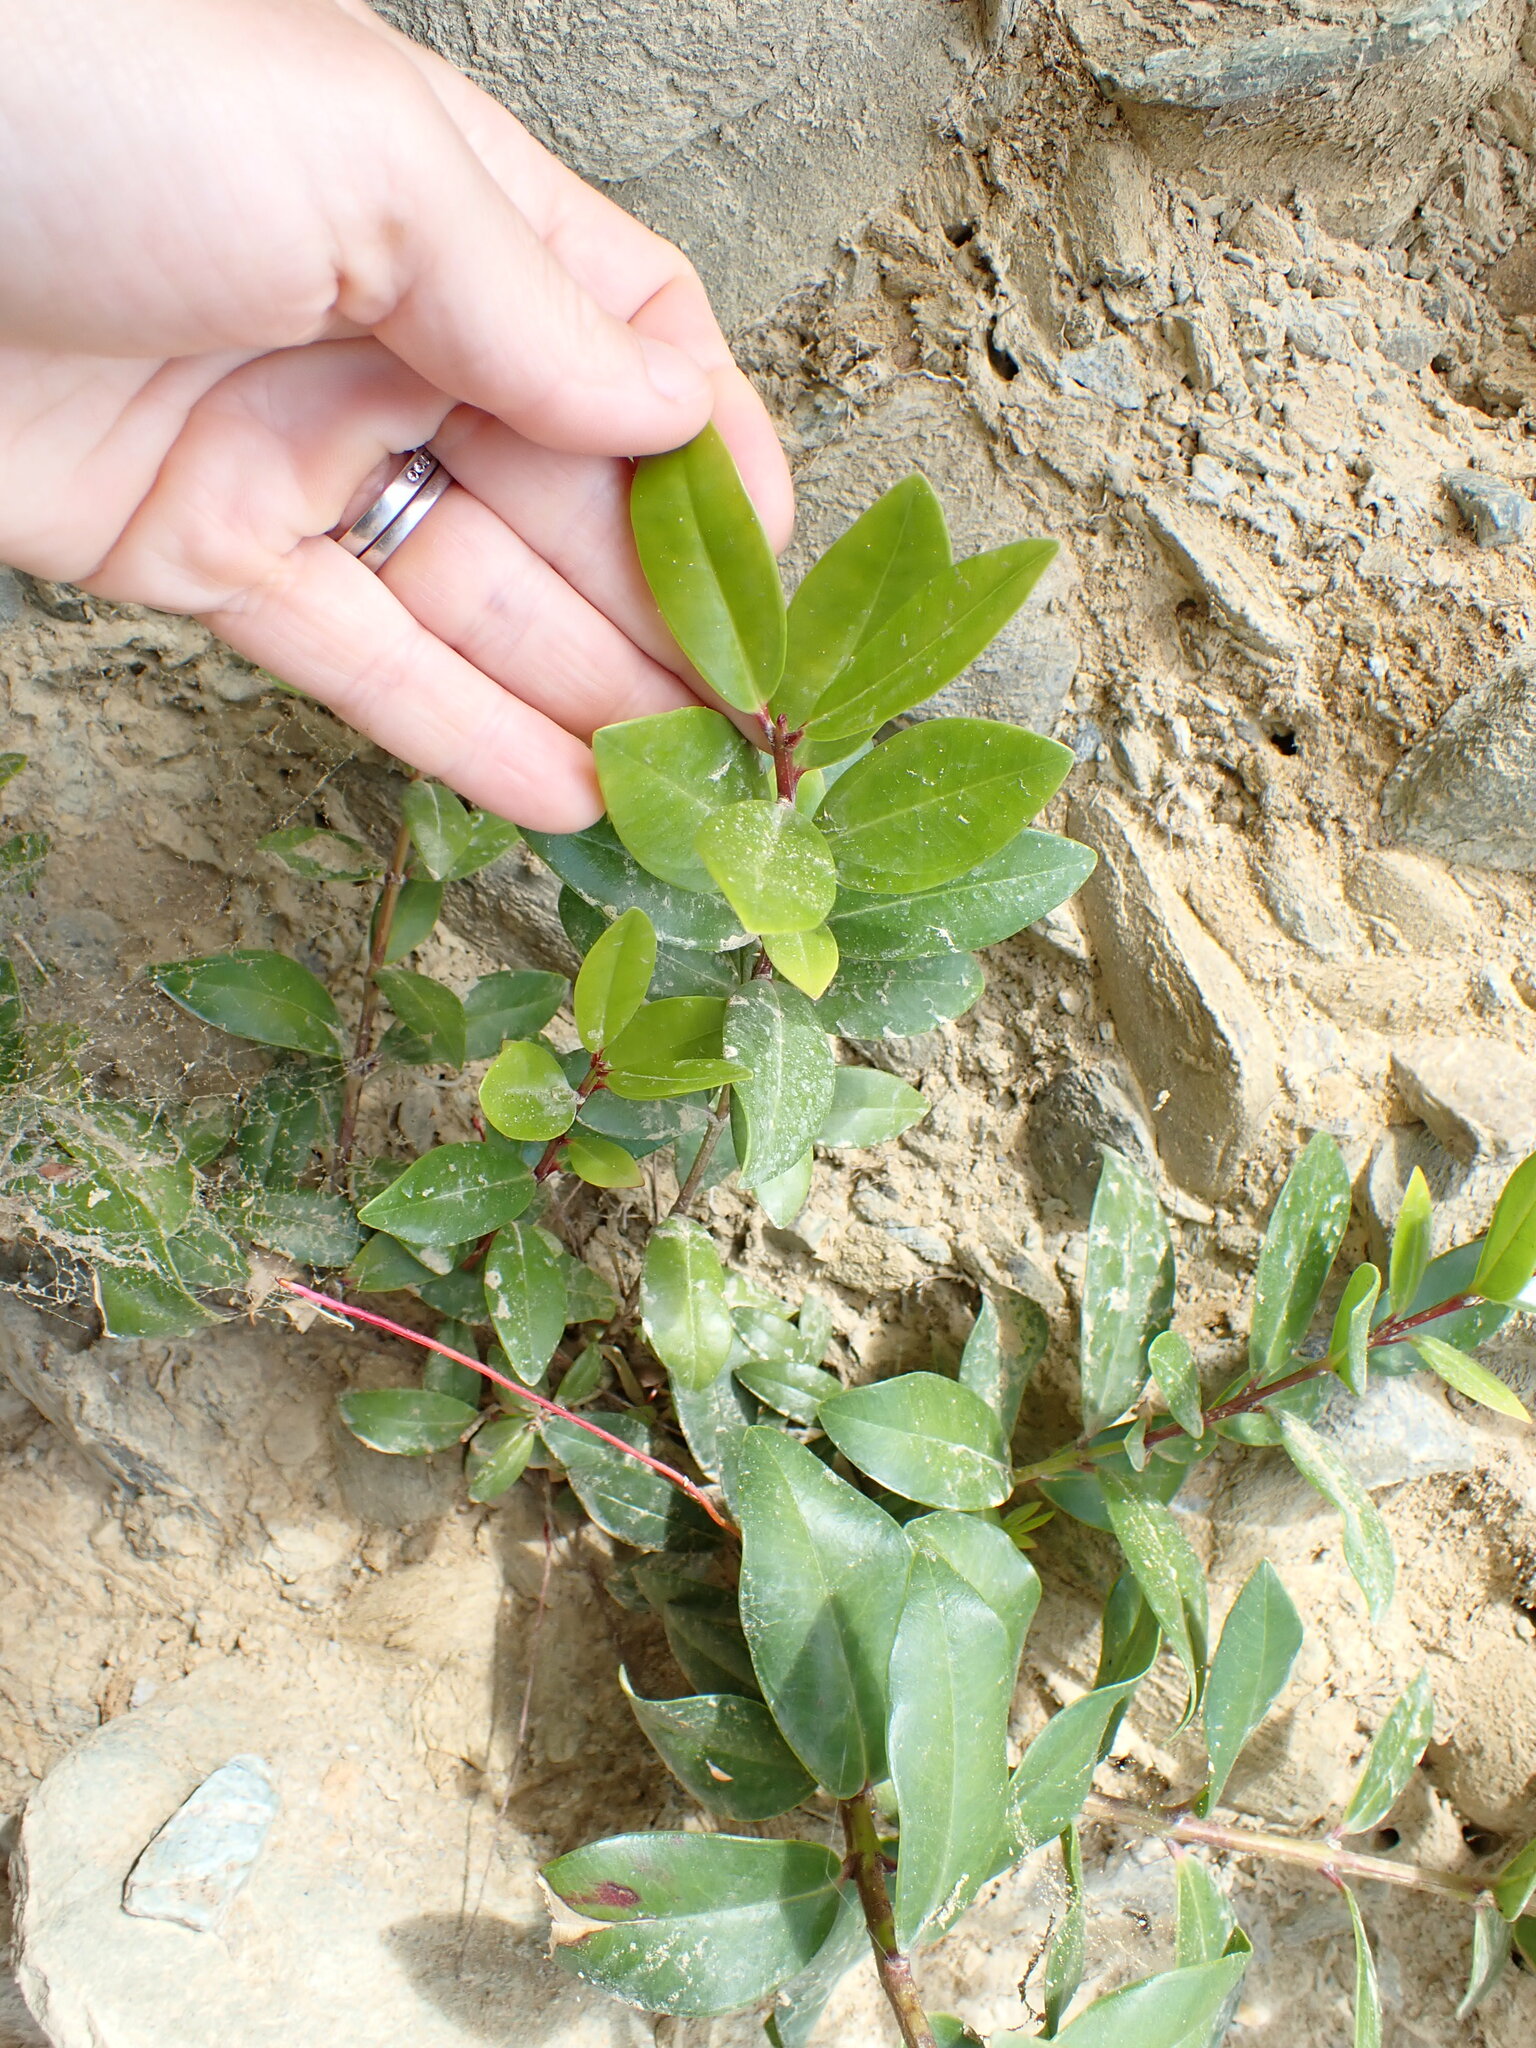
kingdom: Plantae
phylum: Tracheophyta
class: Magnoliopsida
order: Myrtales
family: Myrtaceae
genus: Metrosideros
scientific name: Metrosideros excelsa
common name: New zealand christmastree
